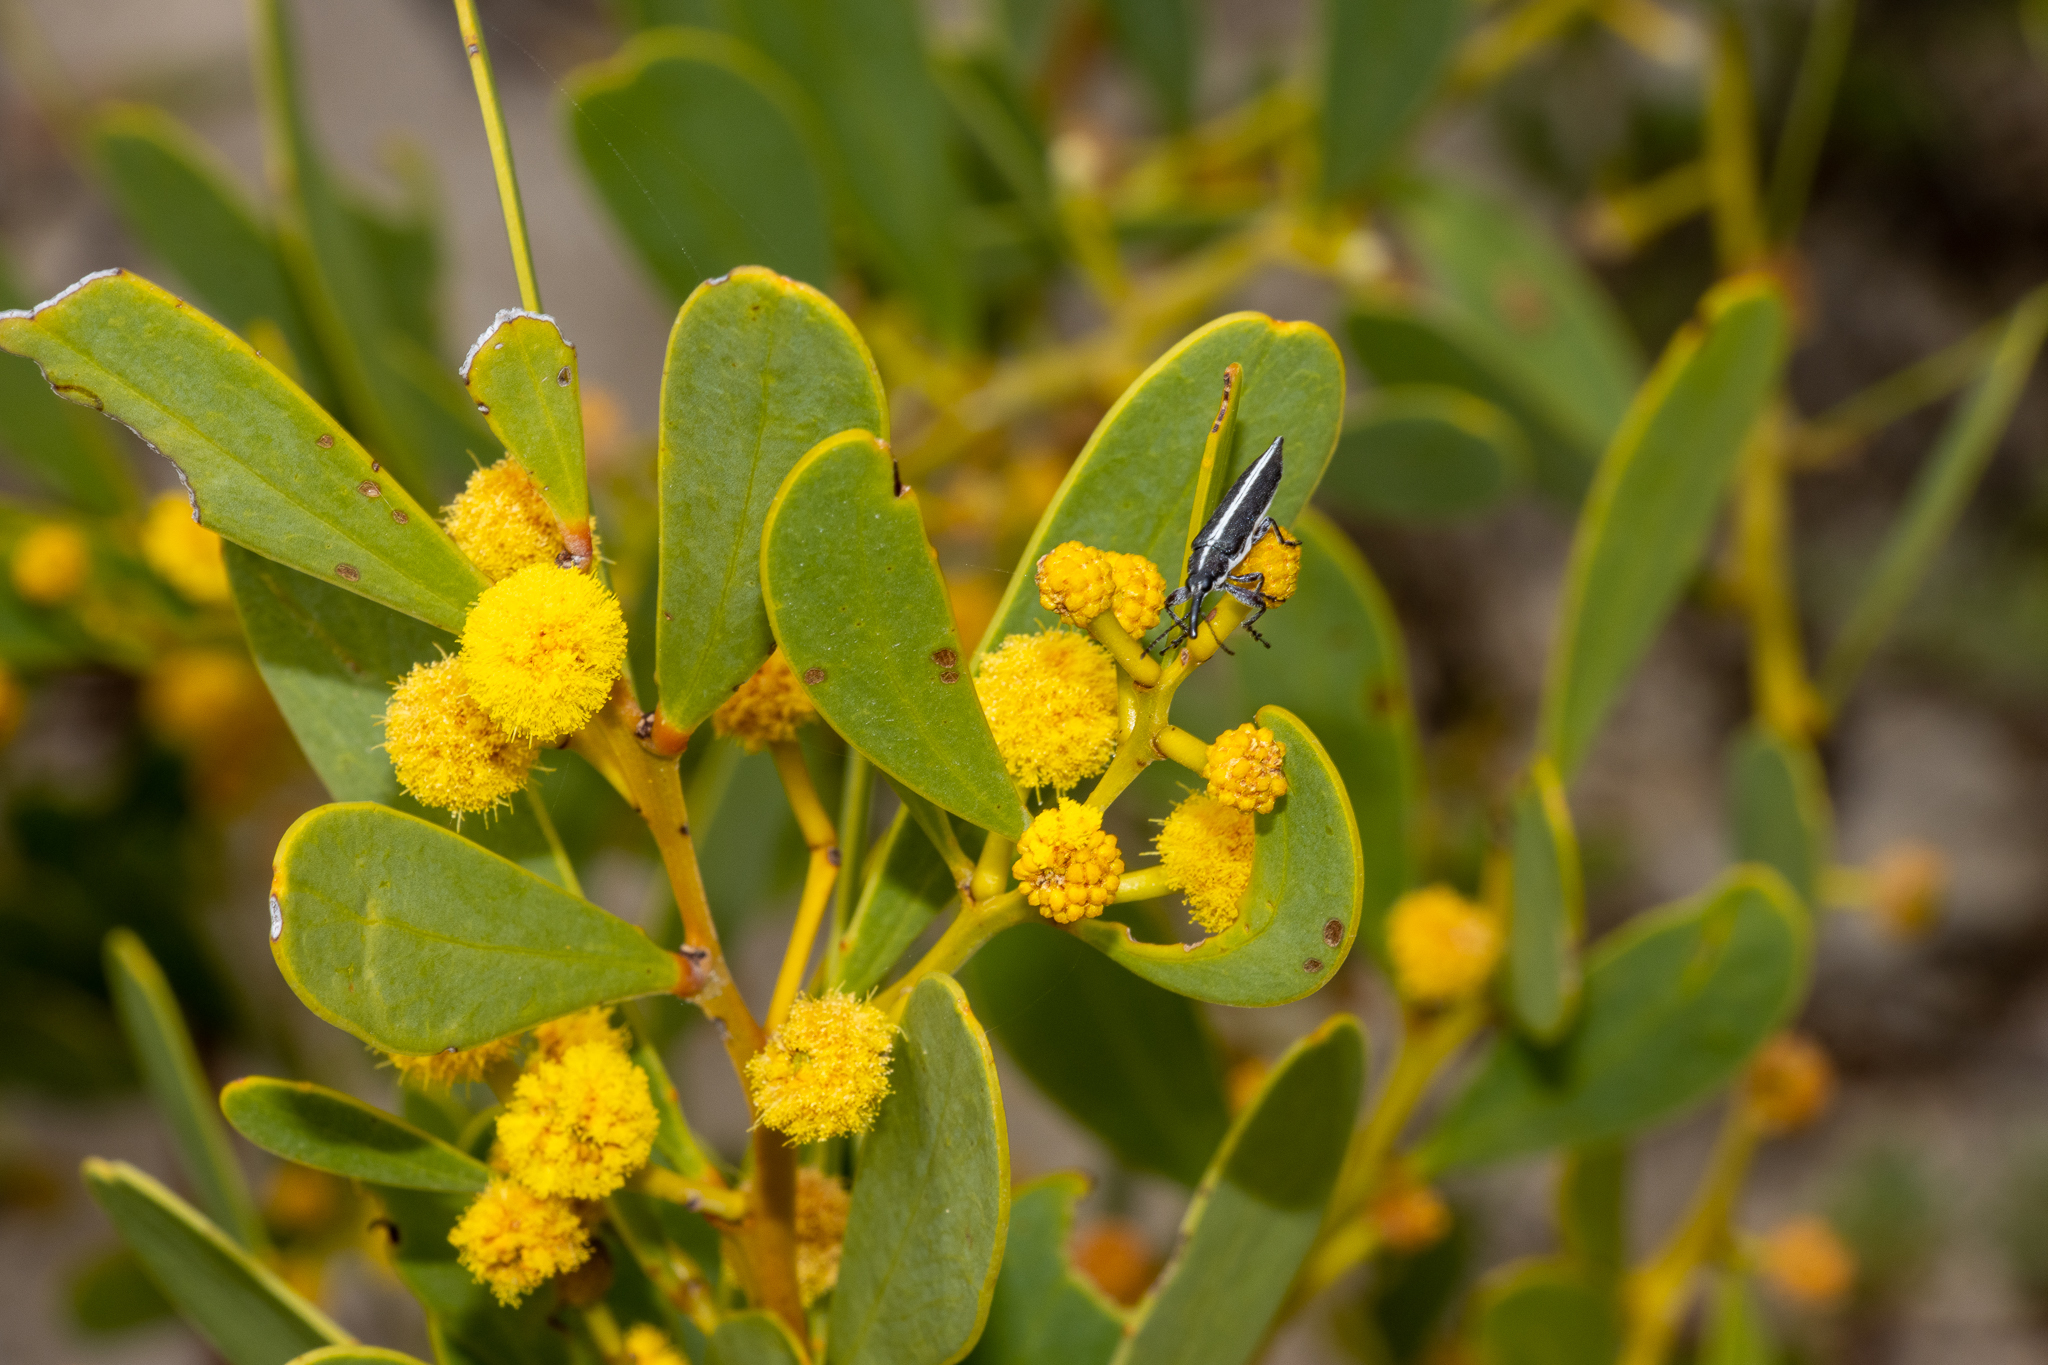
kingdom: Animalia
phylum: Arthropoda
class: Insecta
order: Coleoptera
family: Belidae
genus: Rhinotia
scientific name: Rhinotia suturalis
